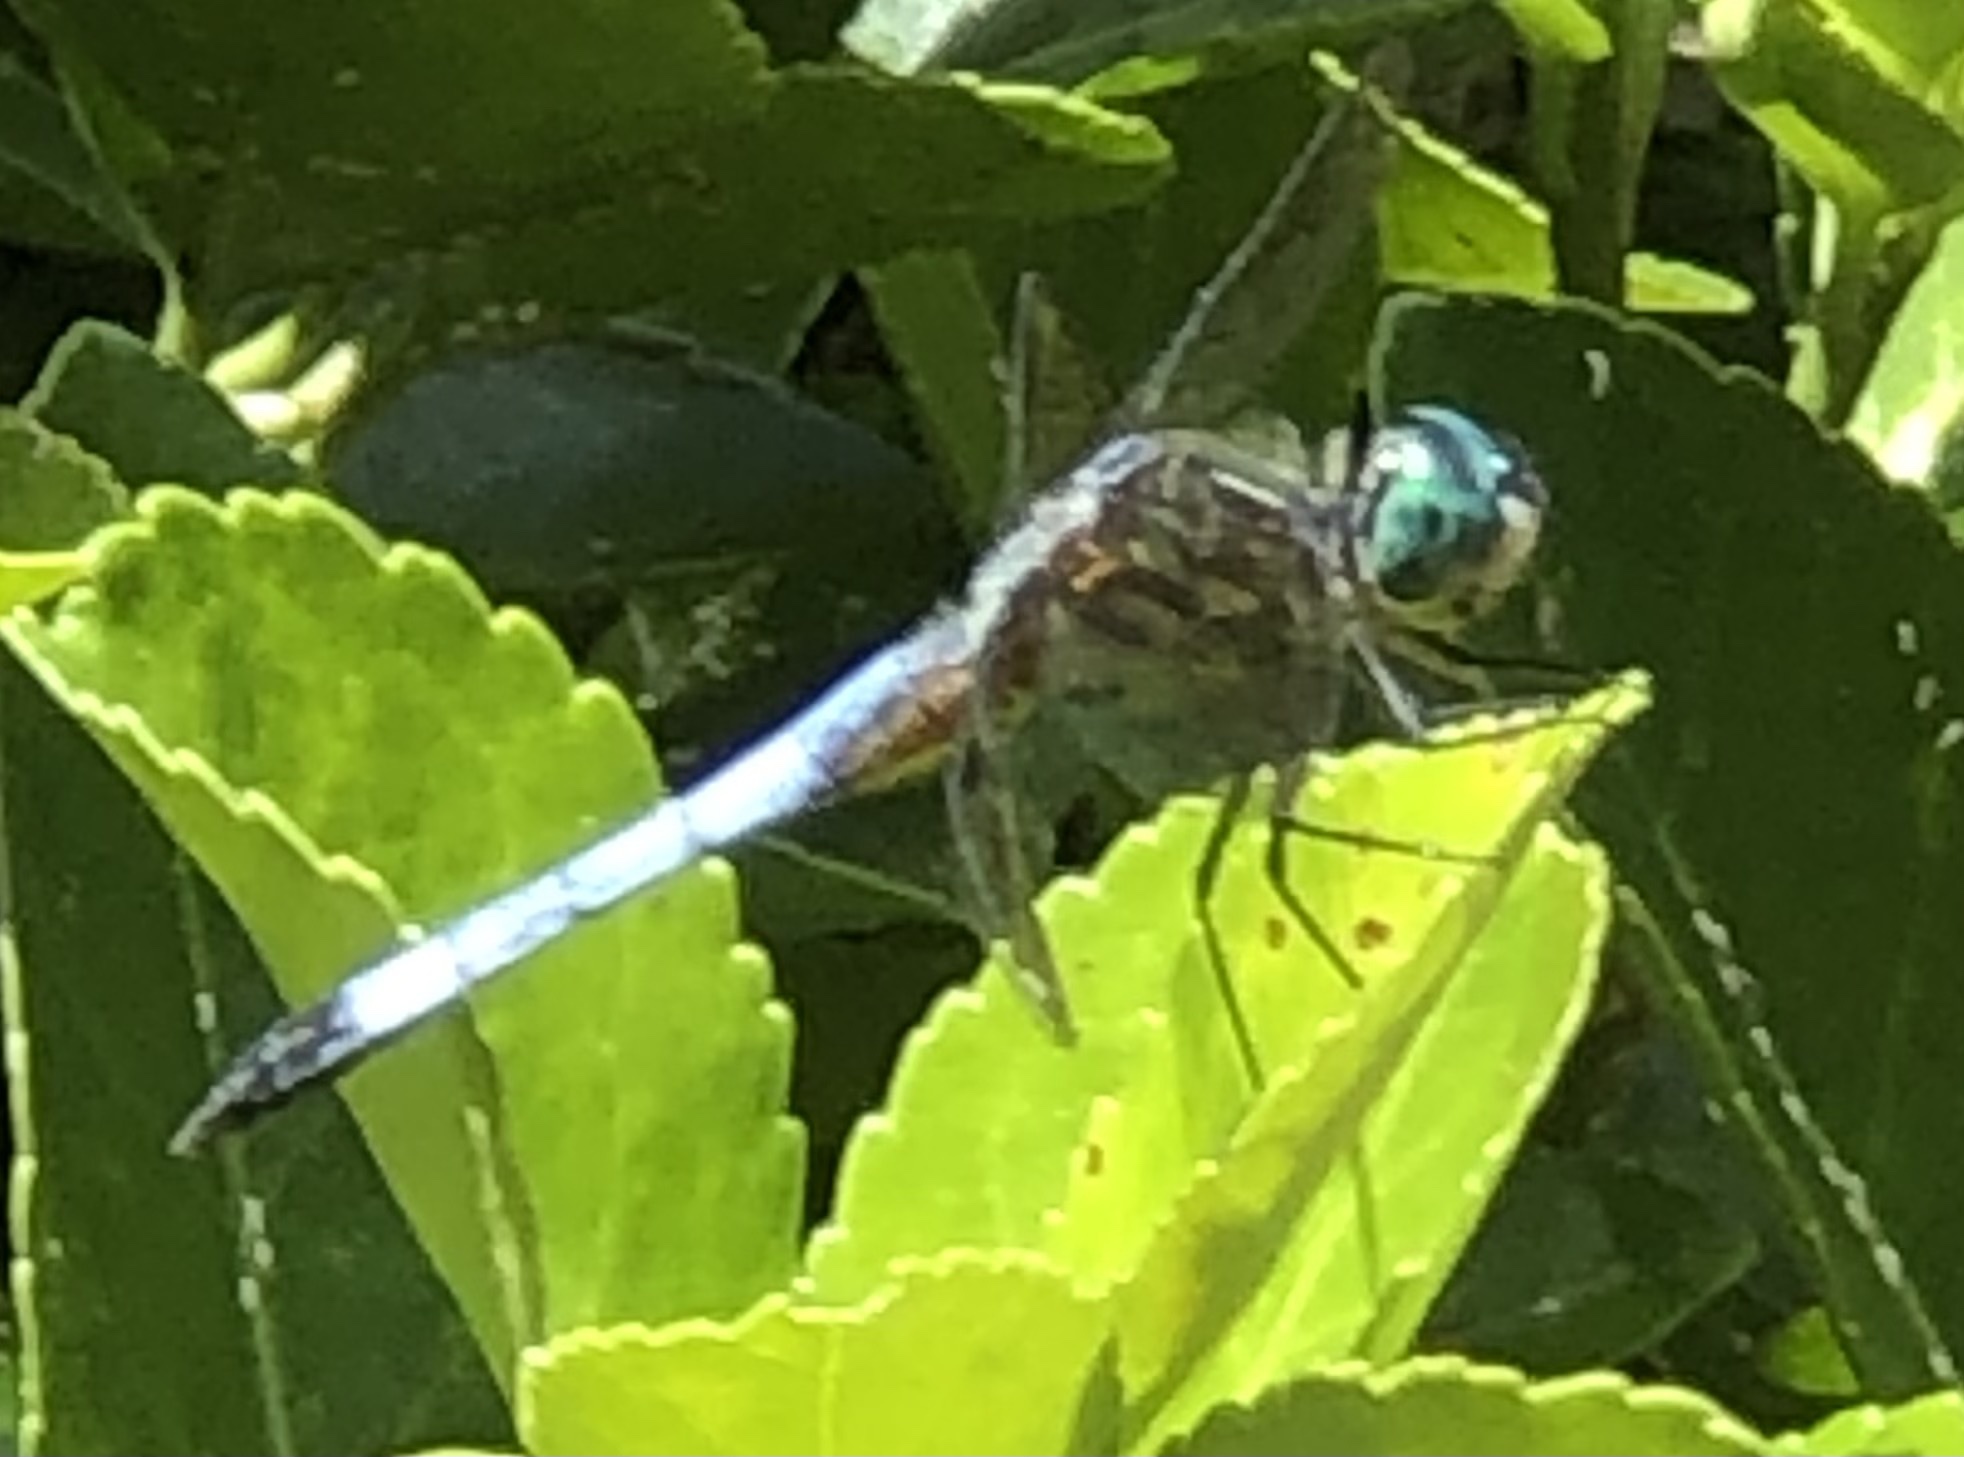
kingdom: Animalia
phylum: Arthropoda
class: Insecta
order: Odonata
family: Libellulidae
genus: Pachydiplax
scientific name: Pachydiplax longipennis
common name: Blue dasher
